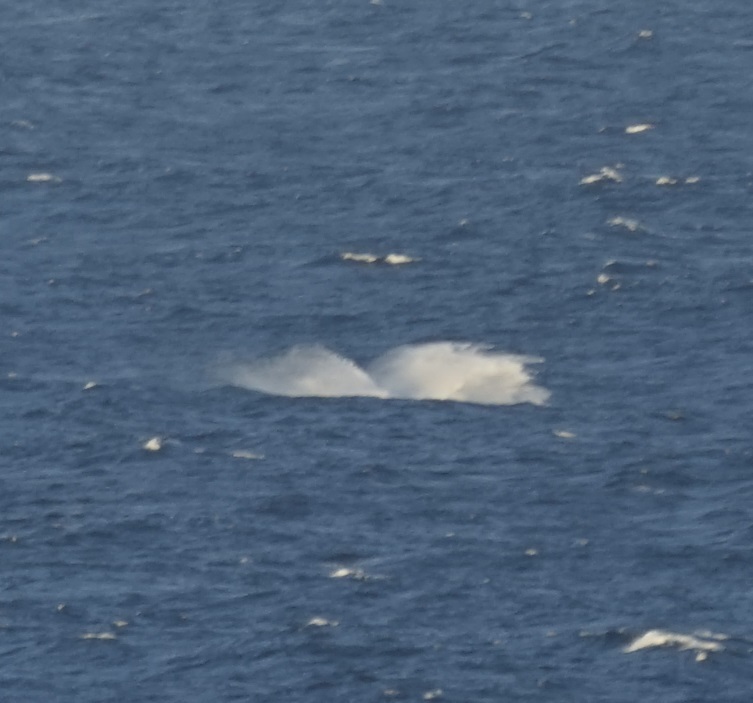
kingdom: Animalia
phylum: Chordata
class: Mammalia
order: Cetacea
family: Balaenopteridae
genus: Megaptera
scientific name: Megaptera novaeangliae
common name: Humpback whale
